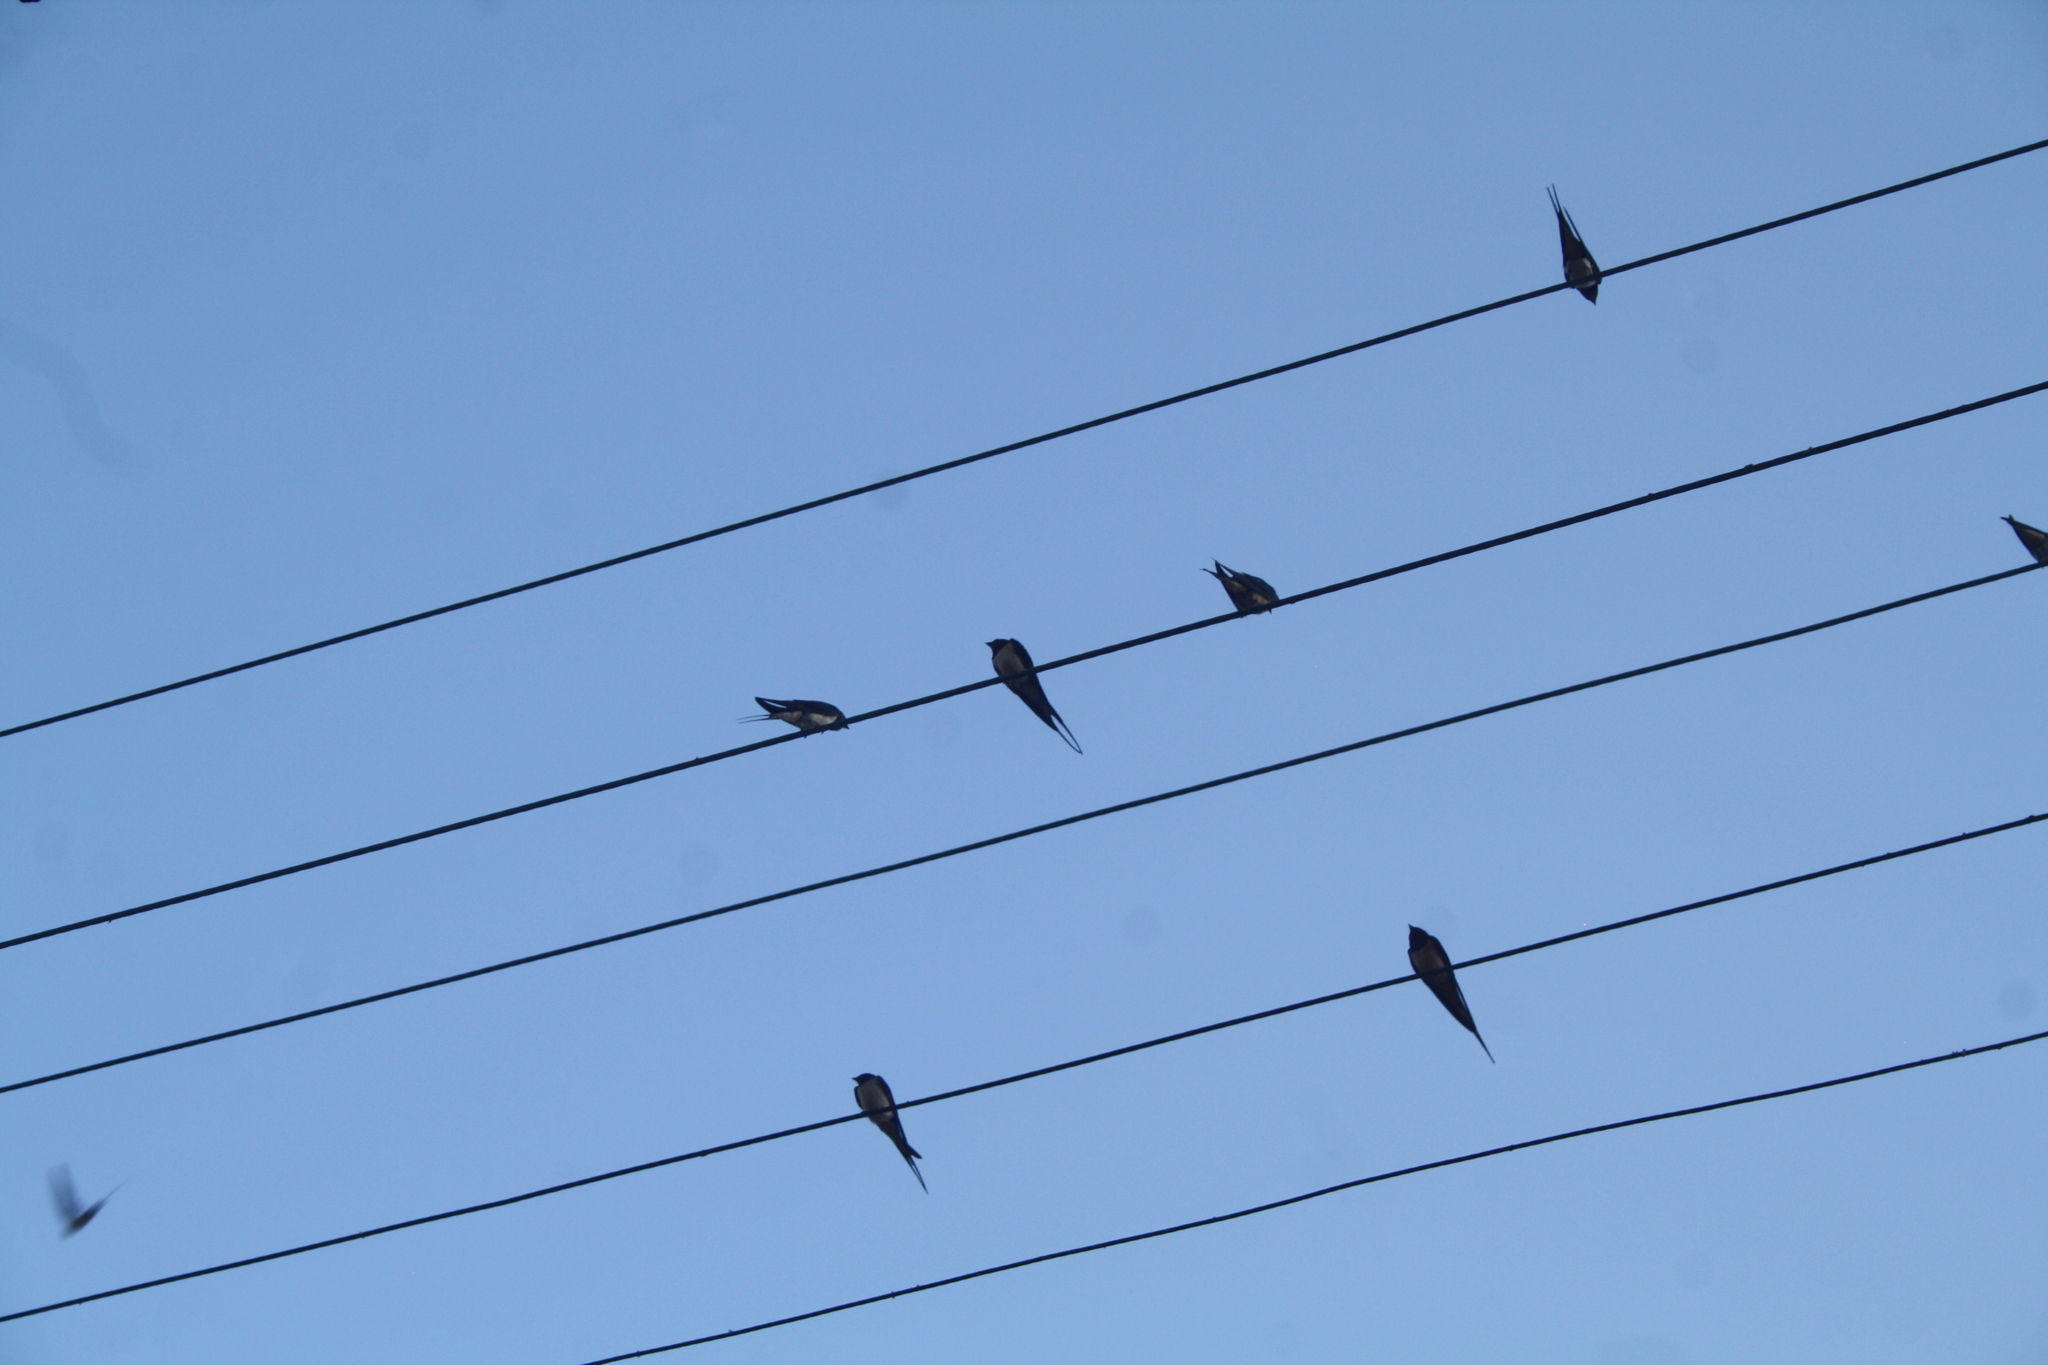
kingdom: Animalia
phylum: Chordata
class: Aves
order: Passeriformes
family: Hirundinidae
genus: Hirundo
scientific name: Hirundo rustica
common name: Barn swallow
